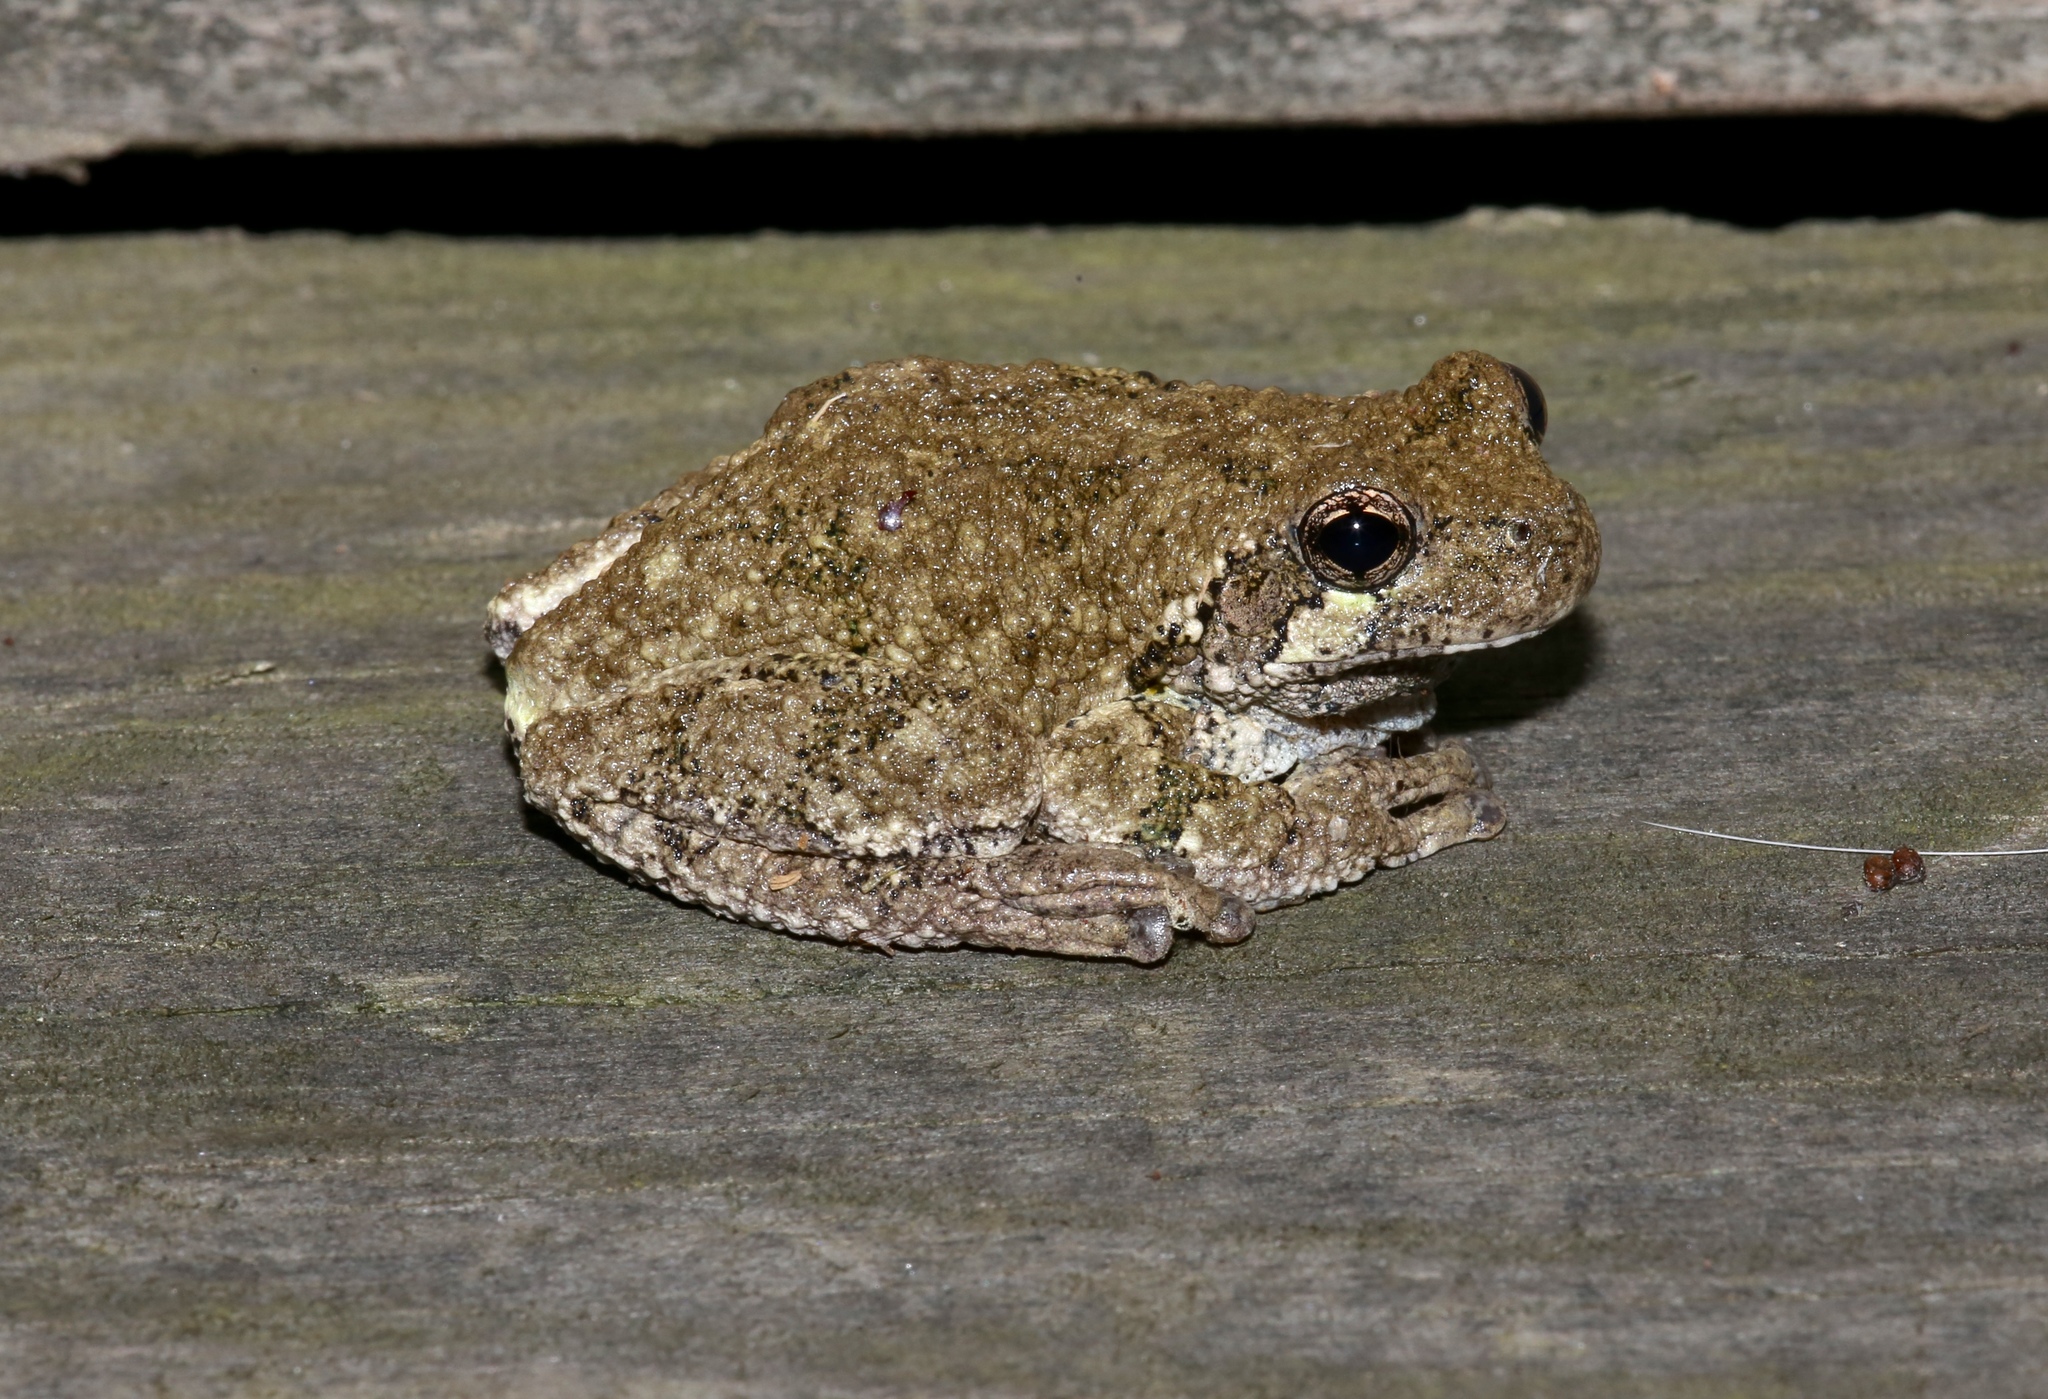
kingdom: Animalia
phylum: Chordata
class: Amphibia
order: Anura
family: Hylidae
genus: Dryophytes
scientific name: Dryophytes versicolor
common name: Gray treefrog
